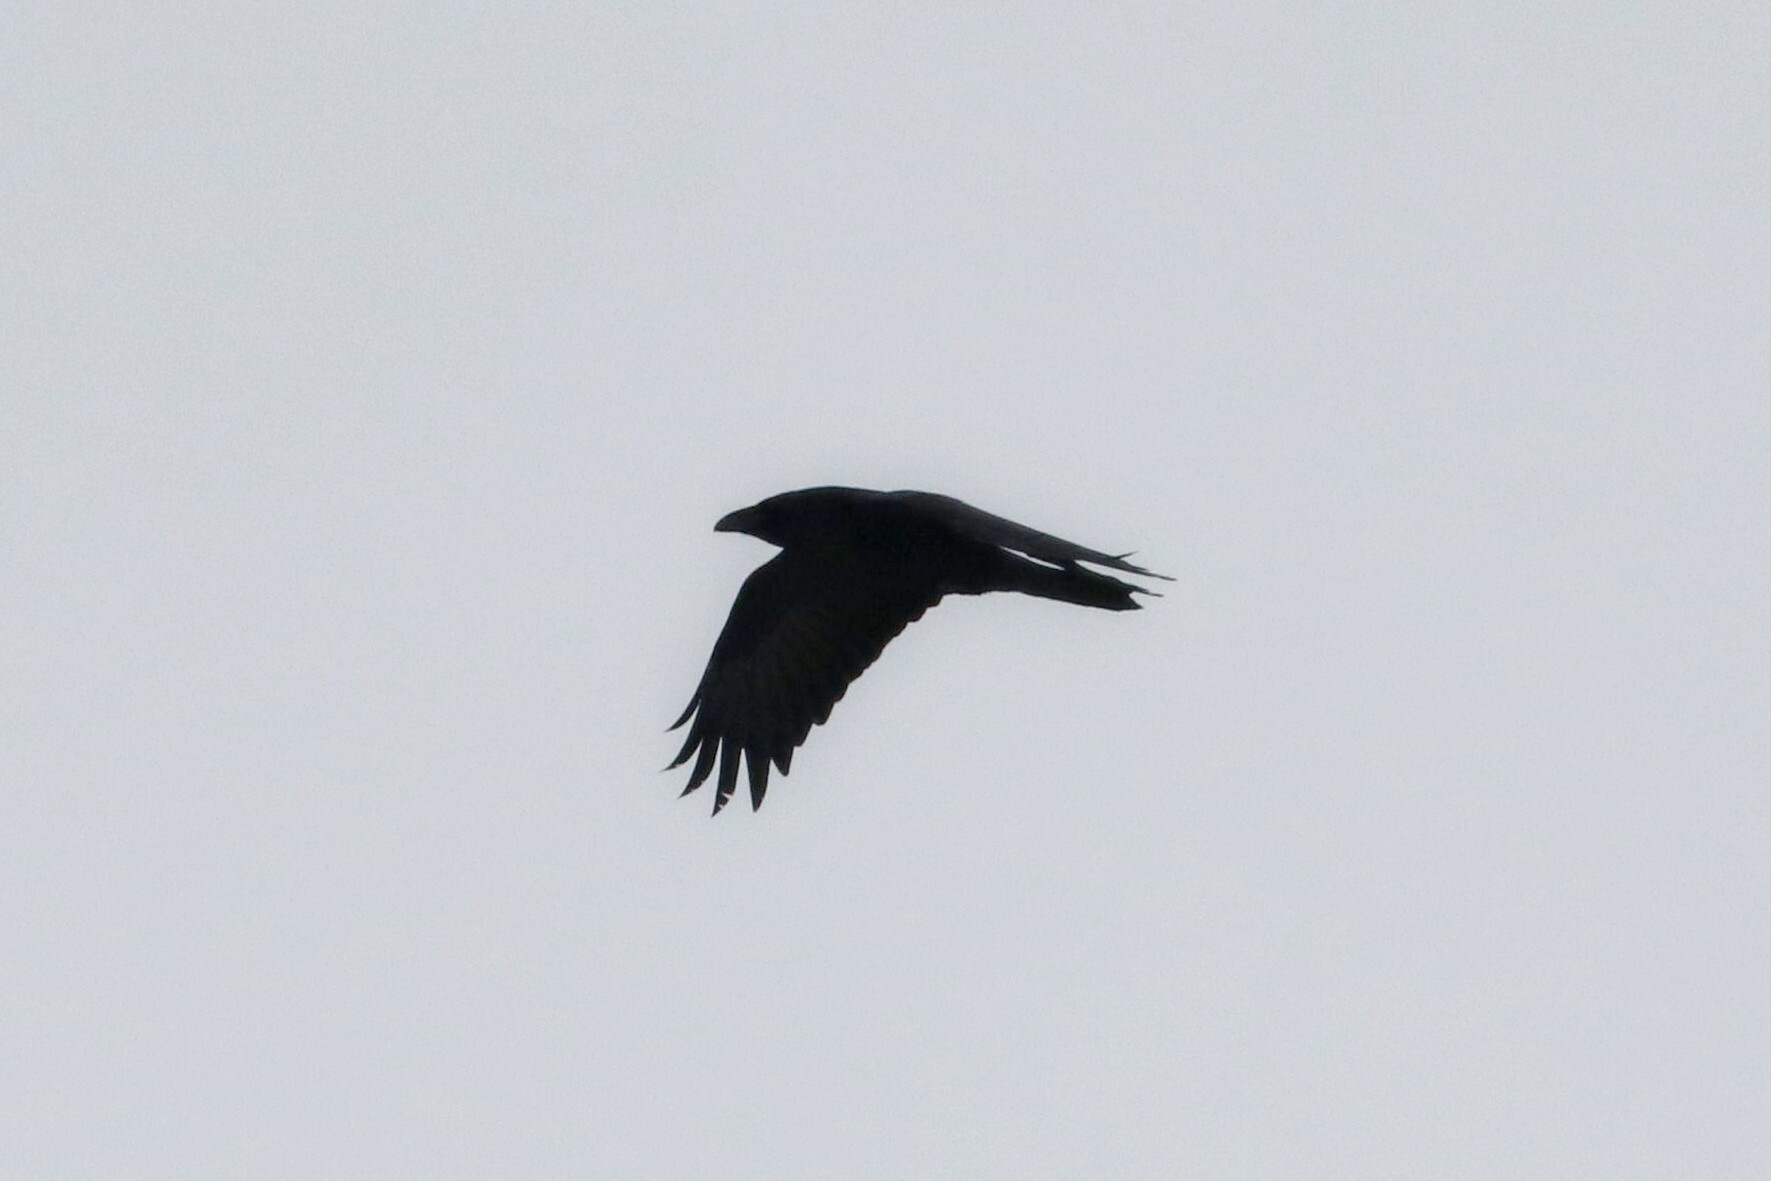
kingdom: Animalia
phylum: Chordata
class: Aves
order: Passeriformes
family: Corvidae
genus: Corvus
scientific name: Corvus corax
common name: Common raven
